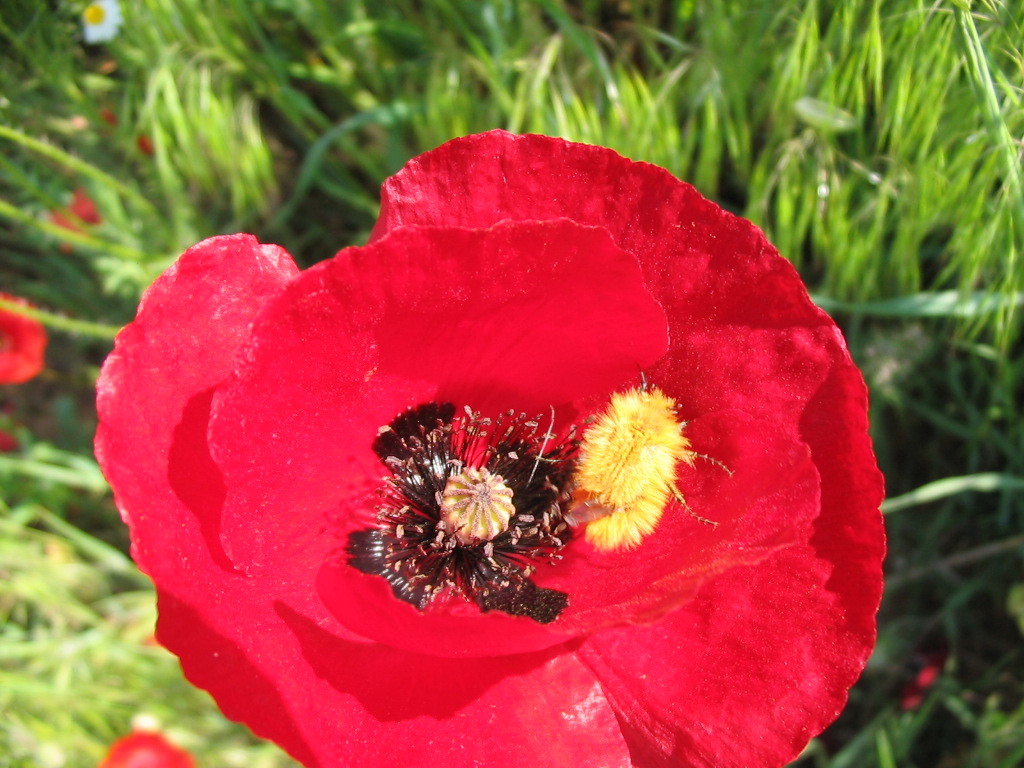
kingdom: Animalia
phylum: Arthropoda
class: Insecta
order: Coleoptera
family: Glaphyridae
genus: Pygopleurus
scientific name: Pygopleurus vulpes
